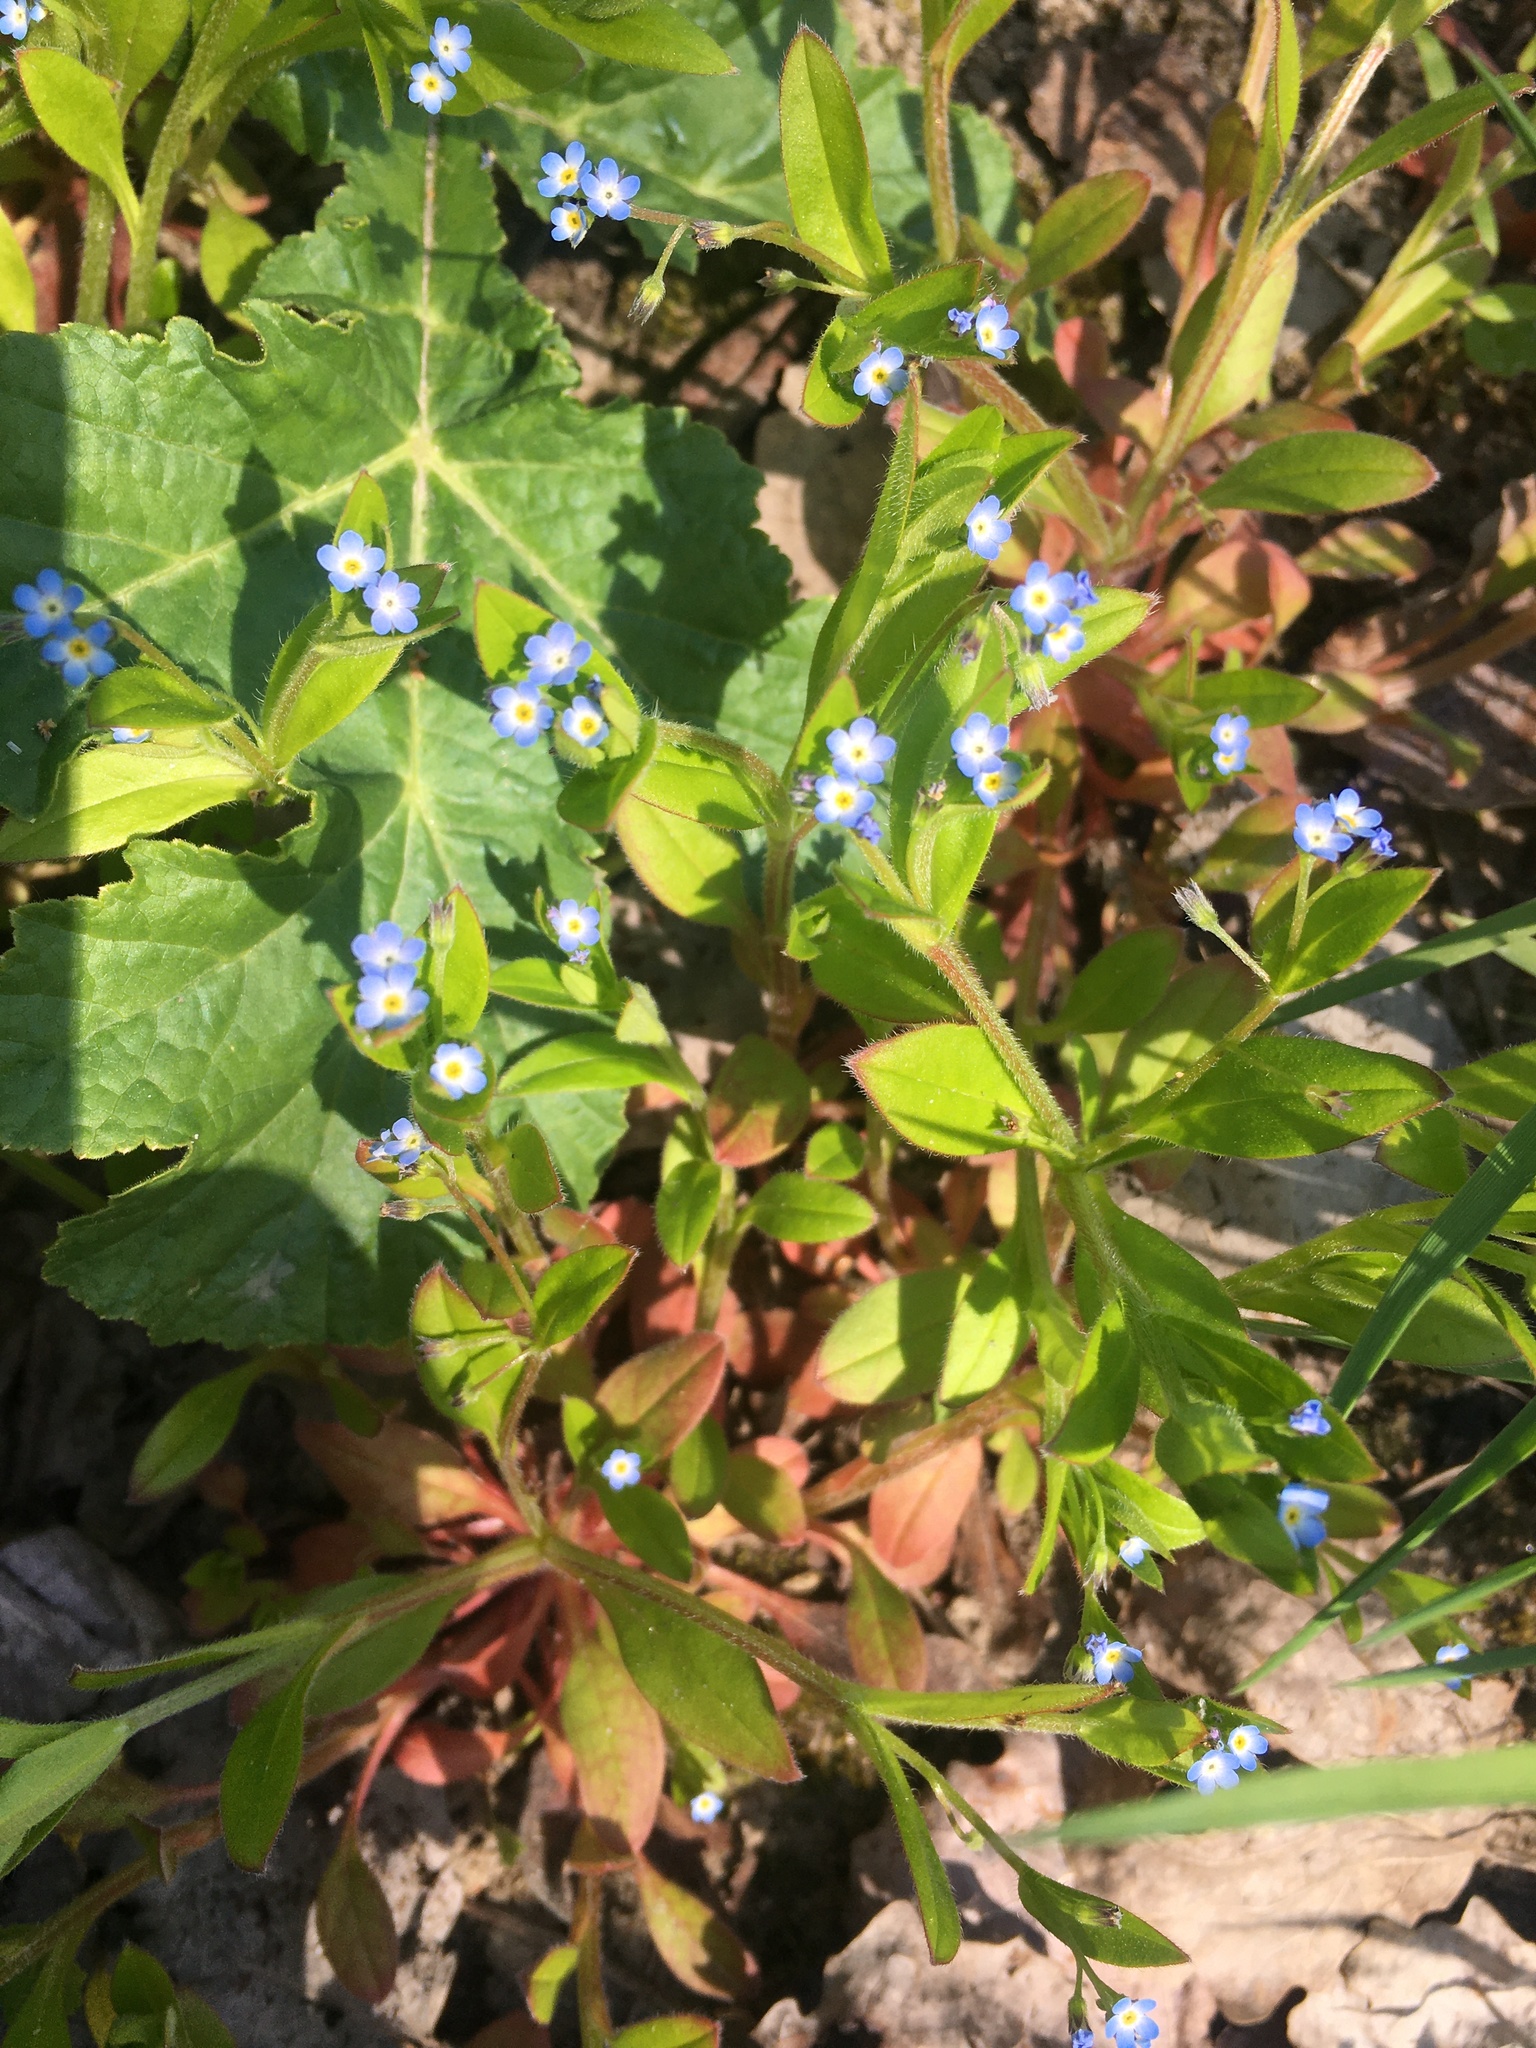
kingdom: Plantae
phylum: Tracheophyta
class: Magnoliopsida
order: Boraginales
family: Boraginaceae
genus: Myosotis
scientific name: Myosotis sparsiflora
